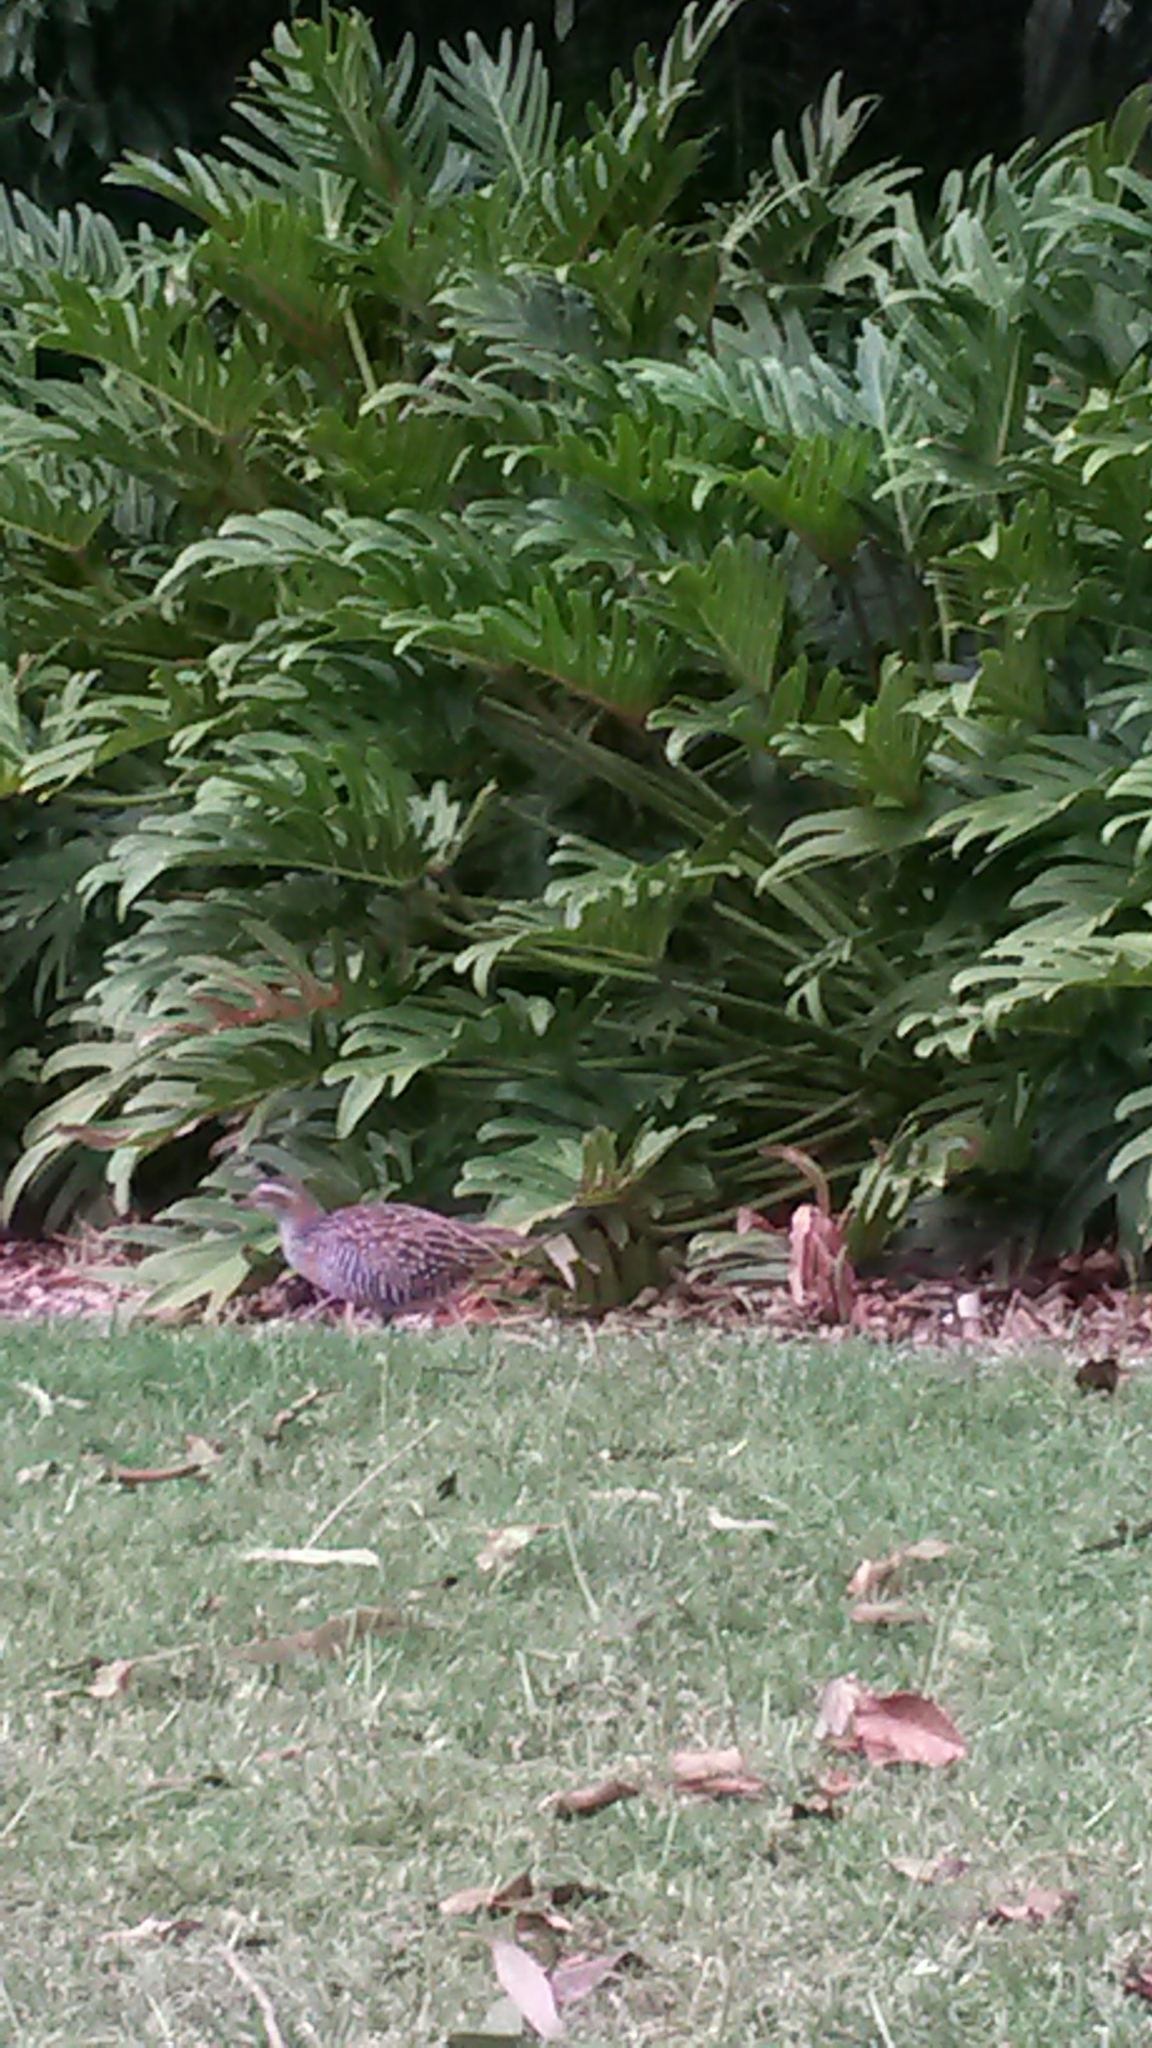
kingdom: Animalia
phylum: Chordata
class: Aves
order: Gruiformes
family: Rallidae
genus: Gallirallus
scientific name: Gallirallus philippensis
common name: Buff-banded rail
